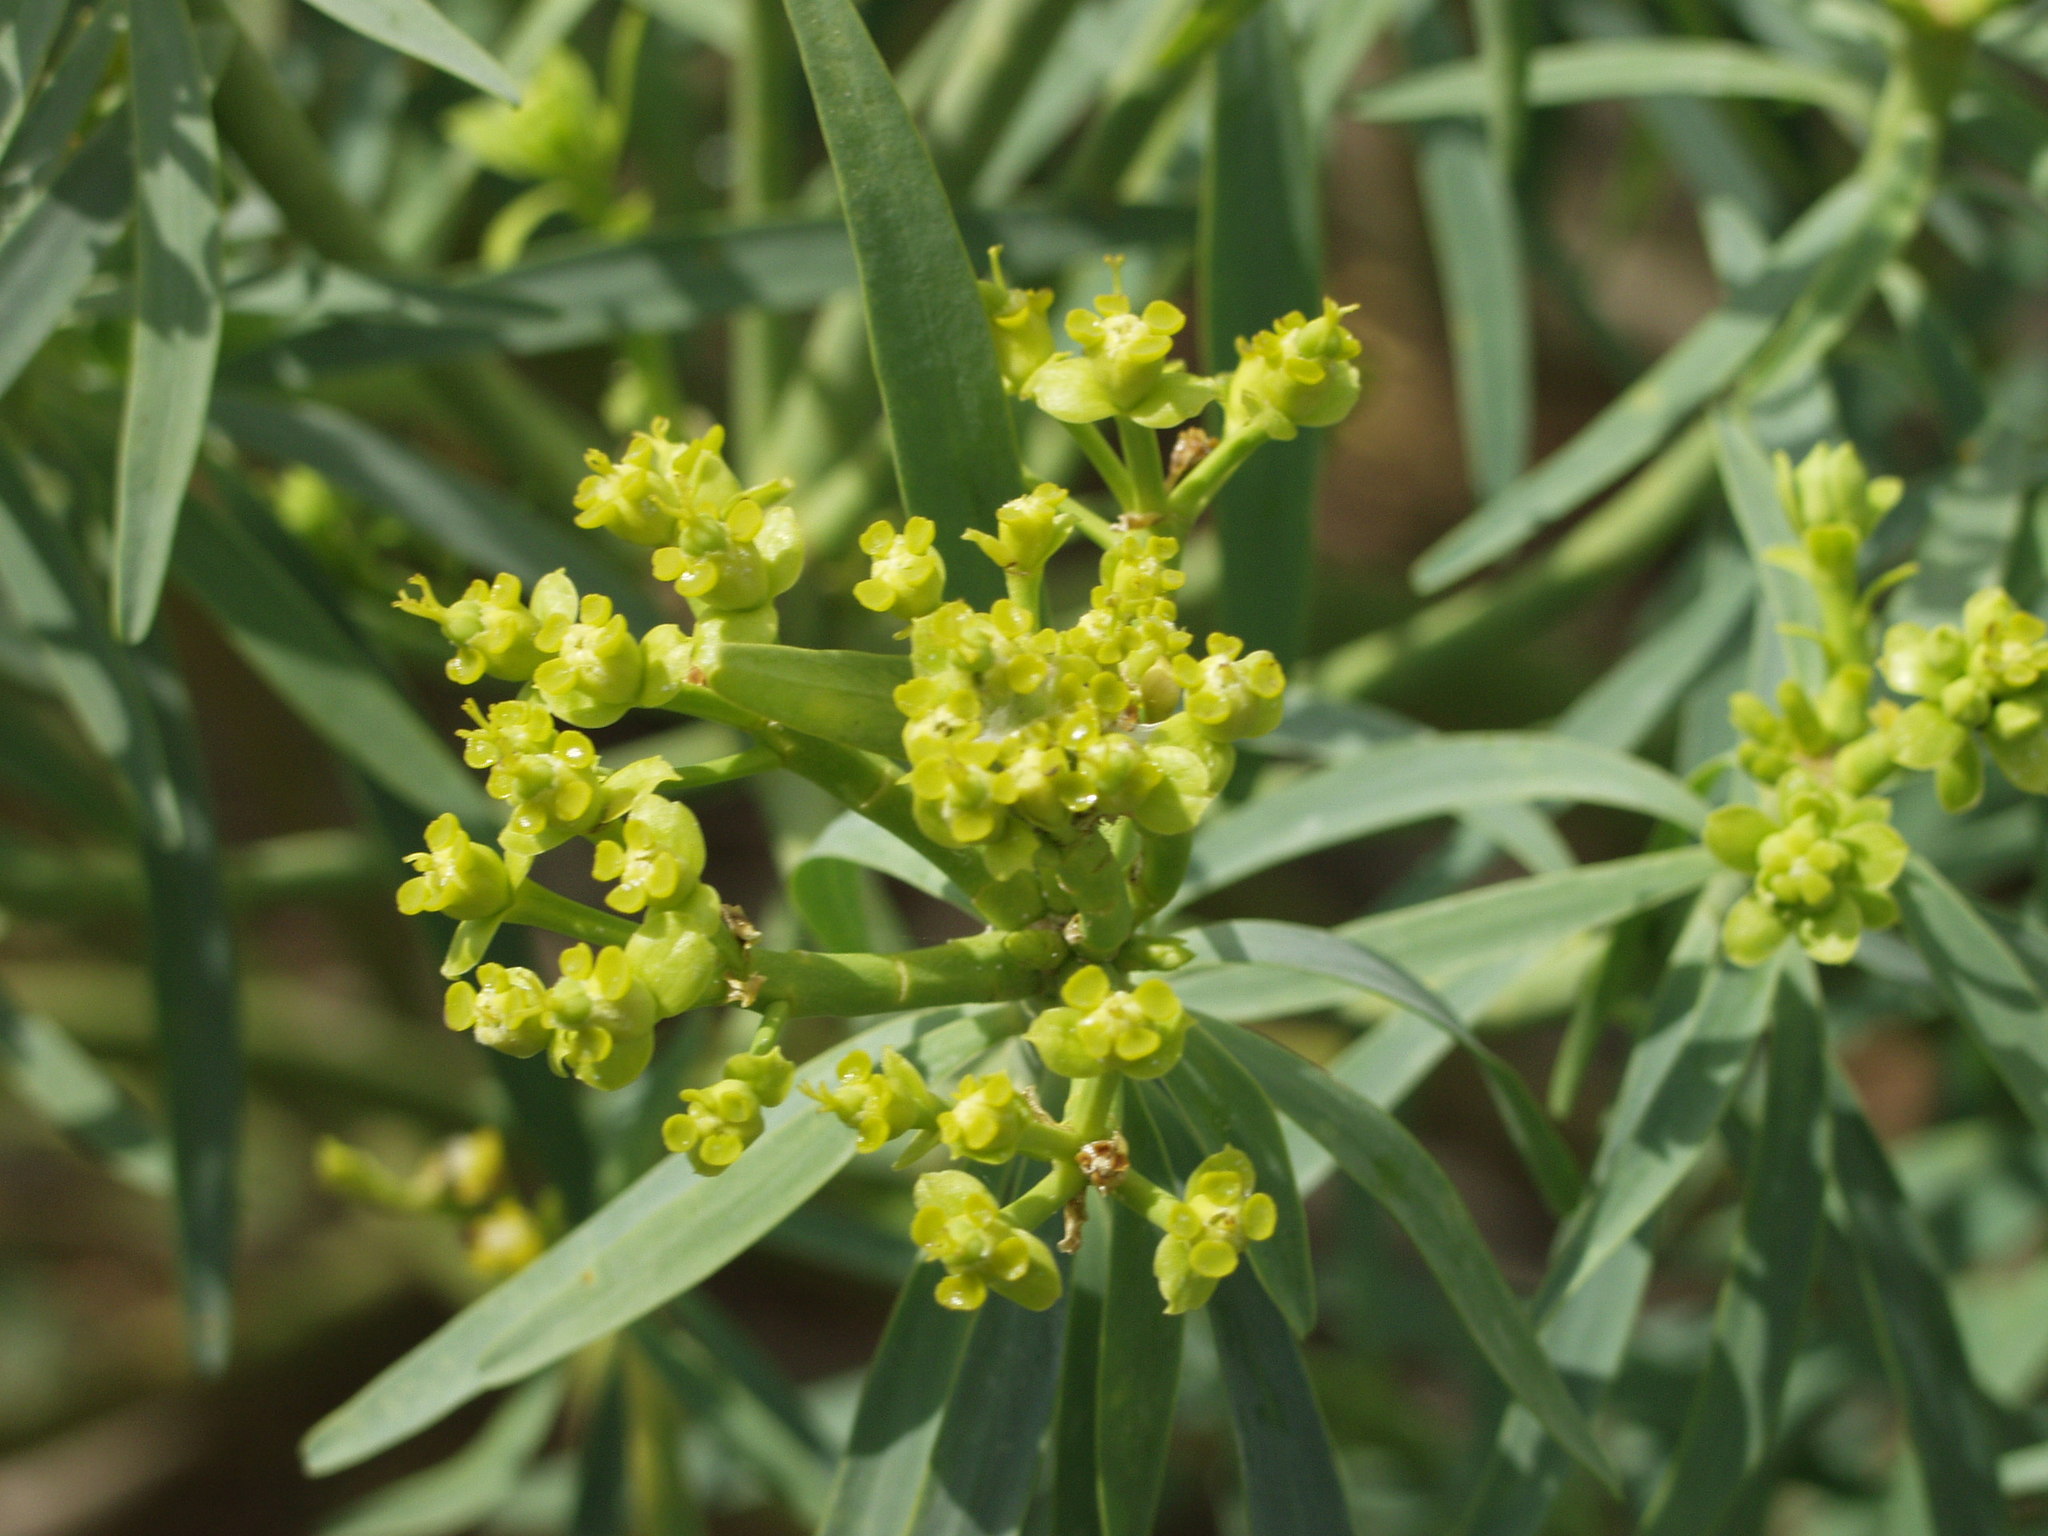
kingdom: Plantae
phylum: Tracheophyta
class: Magnoliopsida
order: Malpighiales
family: Euphorbiaceae
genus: Euphorbia
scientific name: Euphorbia lamarckii
